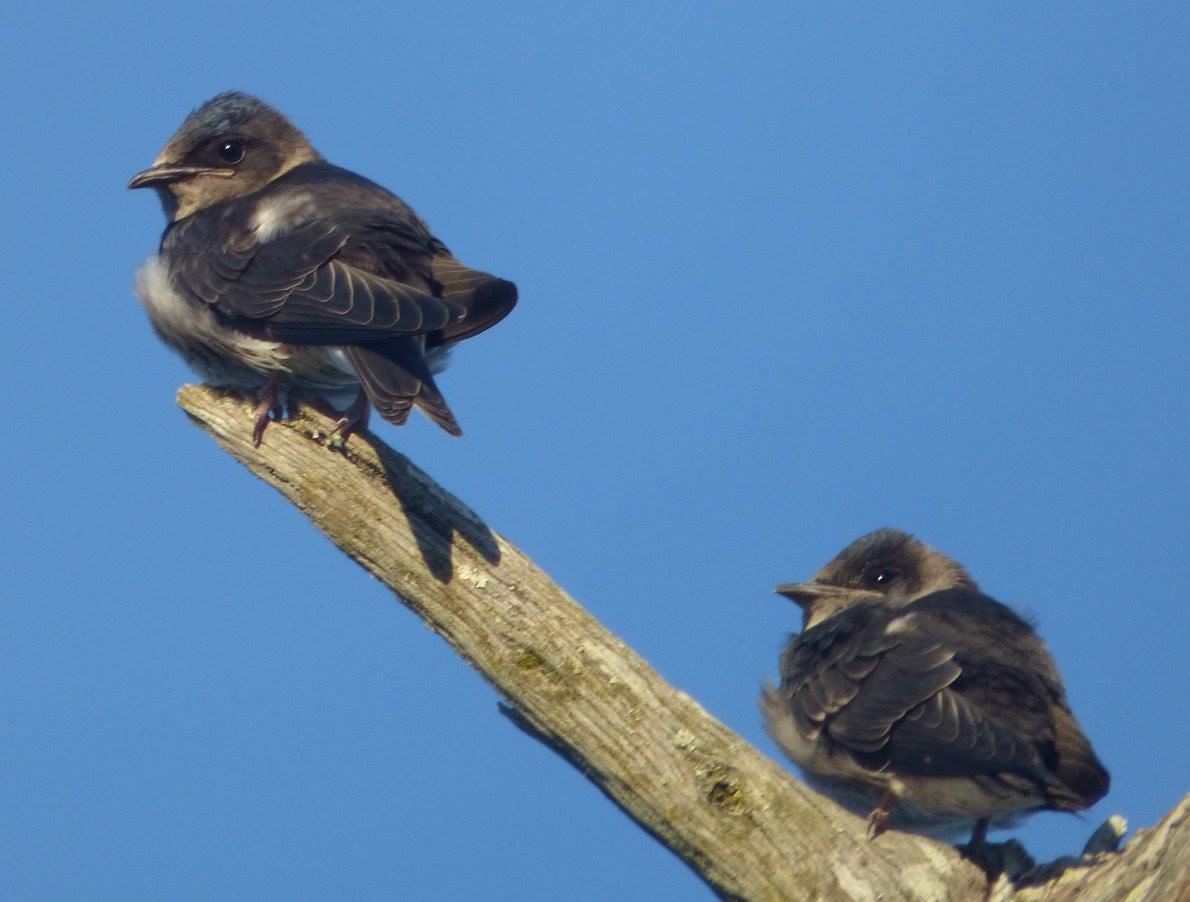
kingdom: Animalia
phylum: Chordata
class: Aves
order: Passeriformes
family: Hirundinidae
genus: Progne
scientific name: Progne subis
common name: Purple martin
